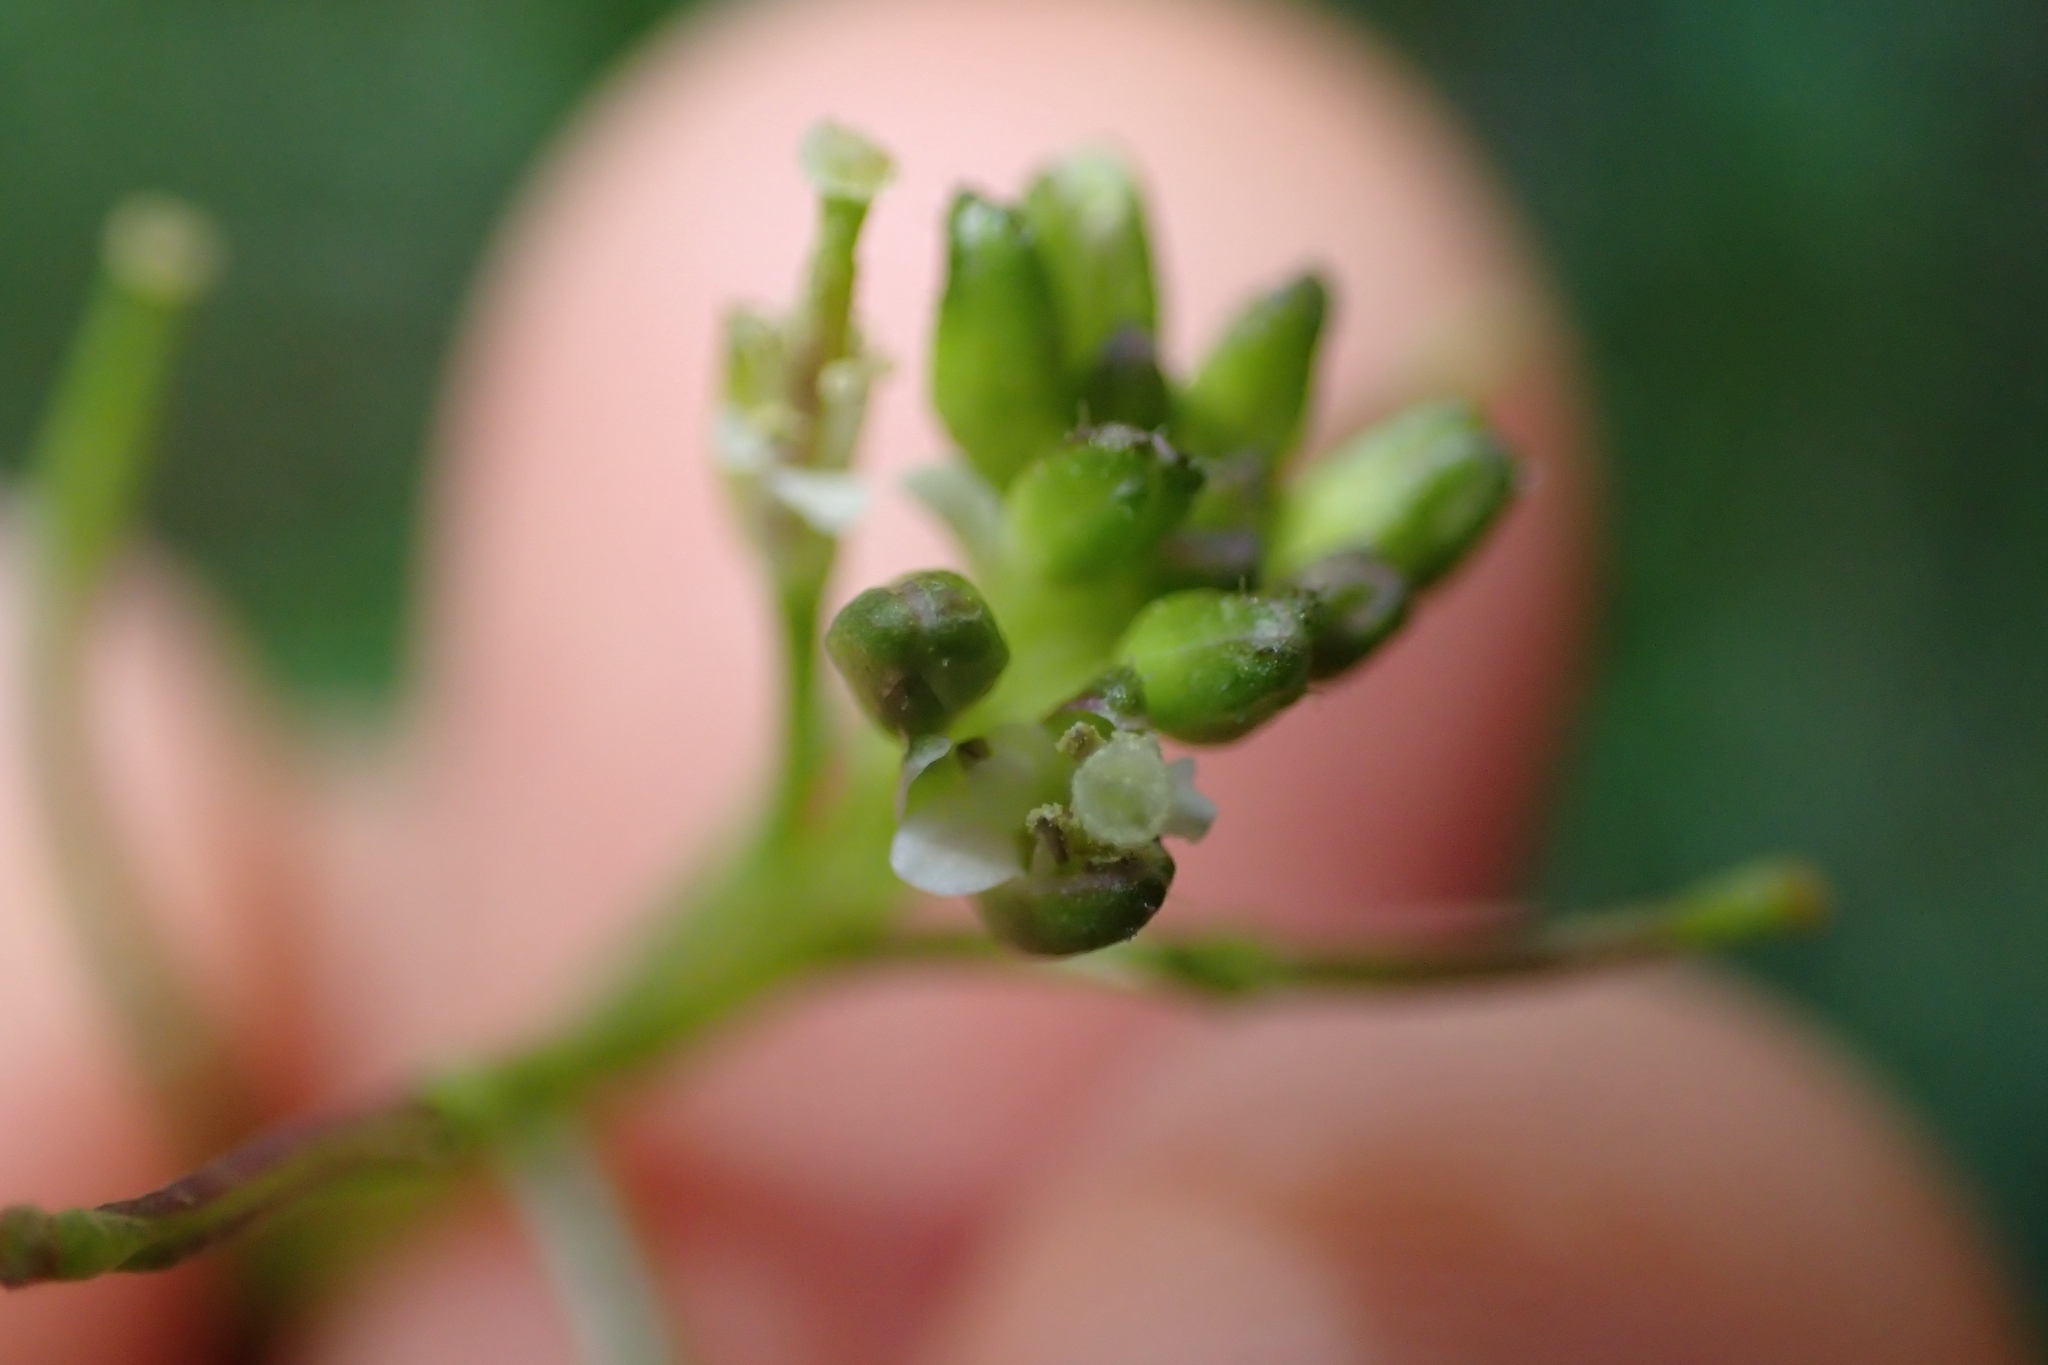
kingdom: Plantae
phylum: Tracheophyta
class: Magnoliopsida
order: Brassicales
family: Brassicaceae
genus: Rorippa
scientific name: Rorippa divaricata
